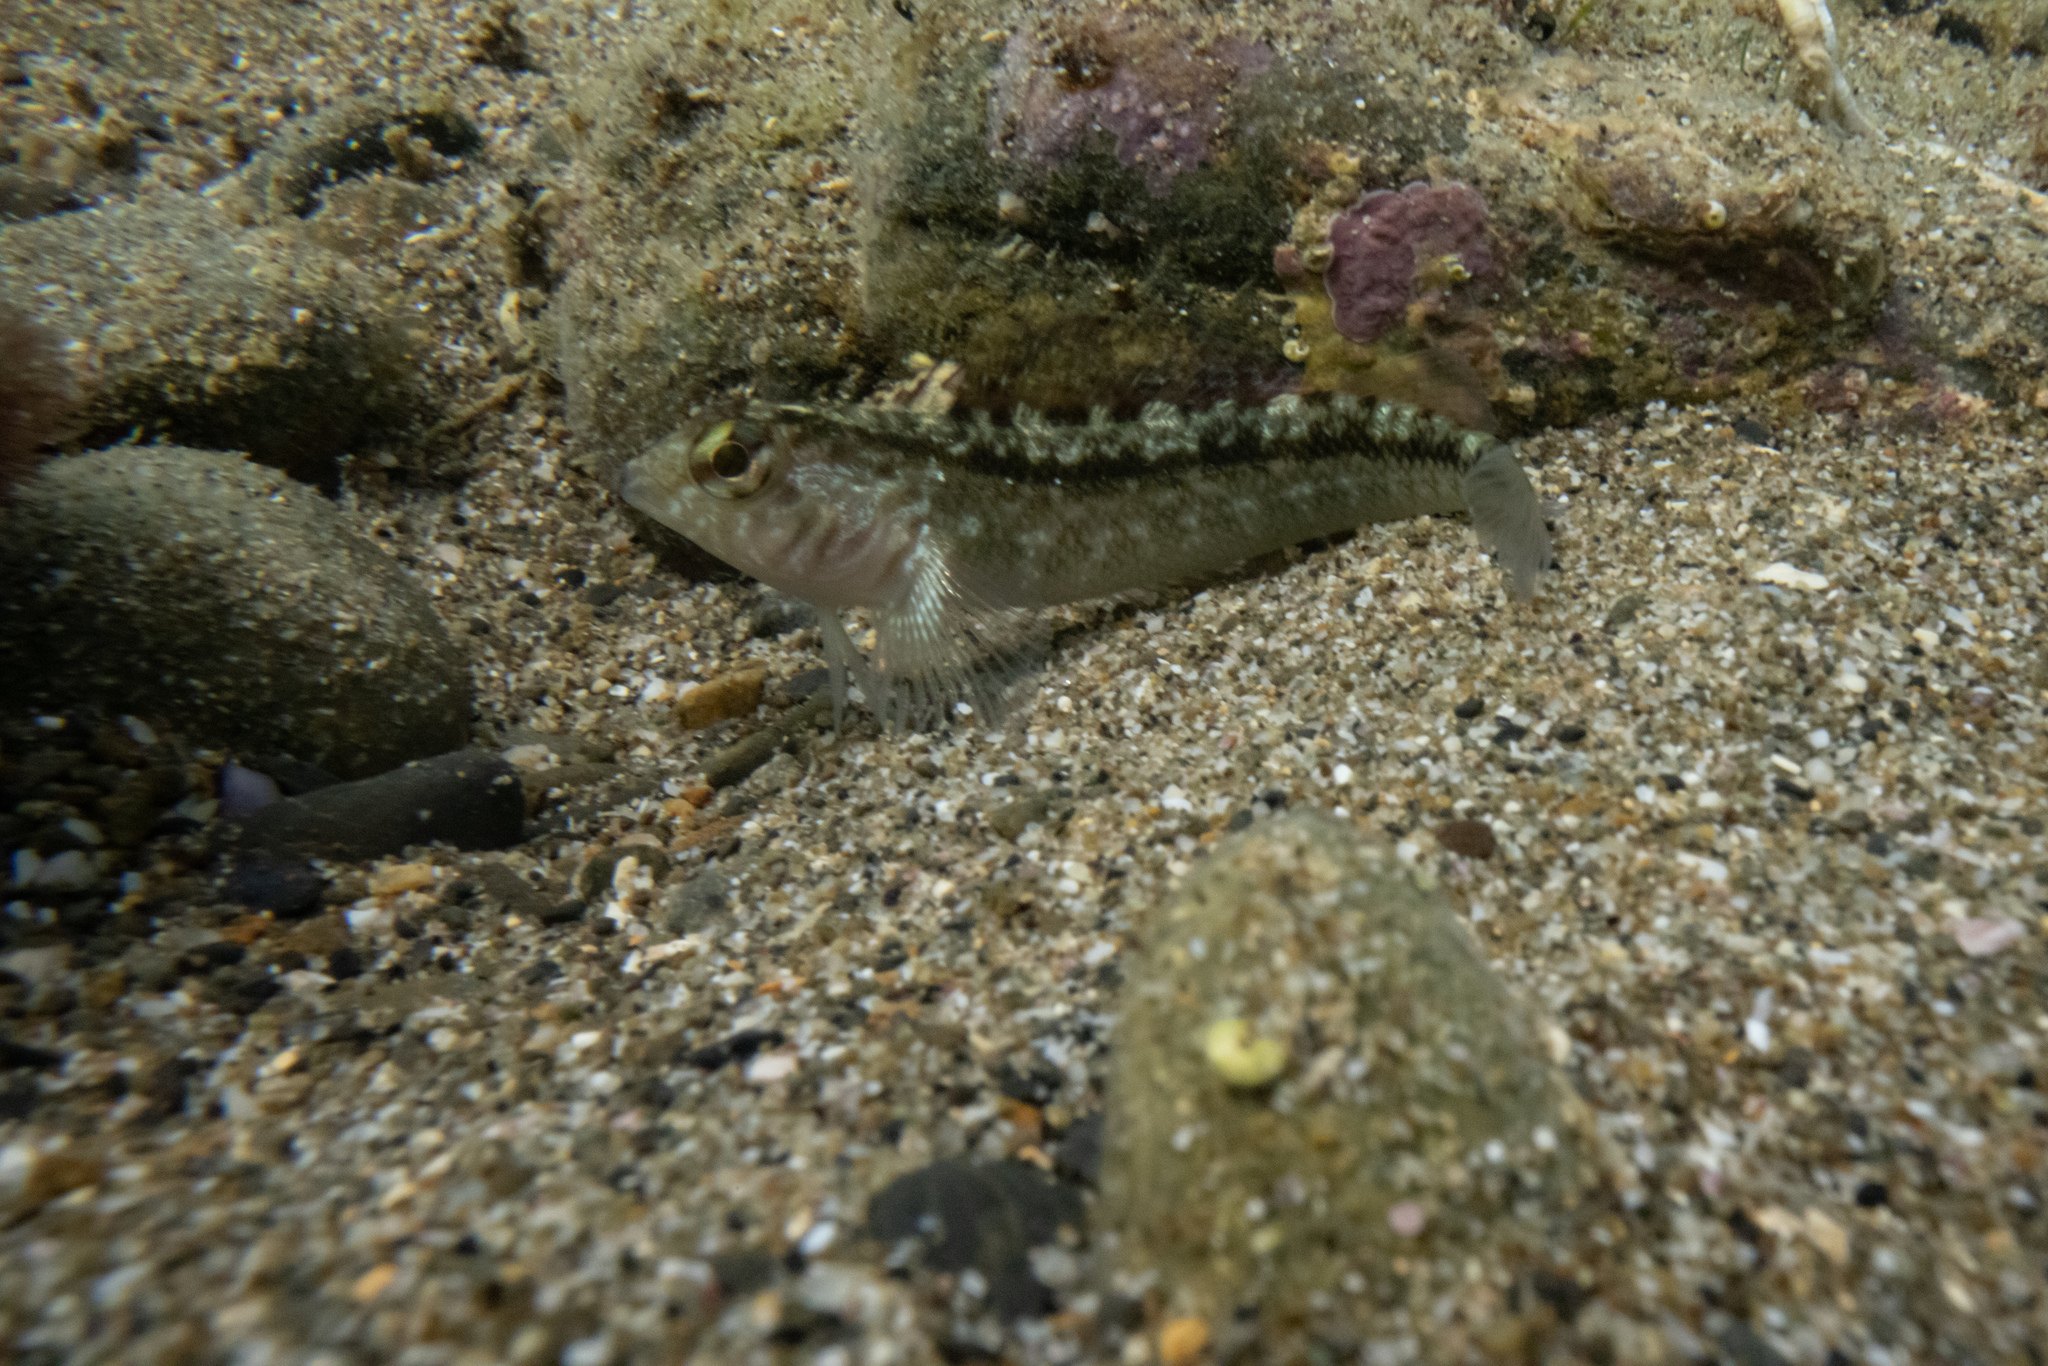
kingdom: Animalia
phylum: Chordata
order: Perciformes
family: Tripterygiidae
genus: Forsterygion
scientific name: Forsterygion lapillum
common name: Common triplefin
